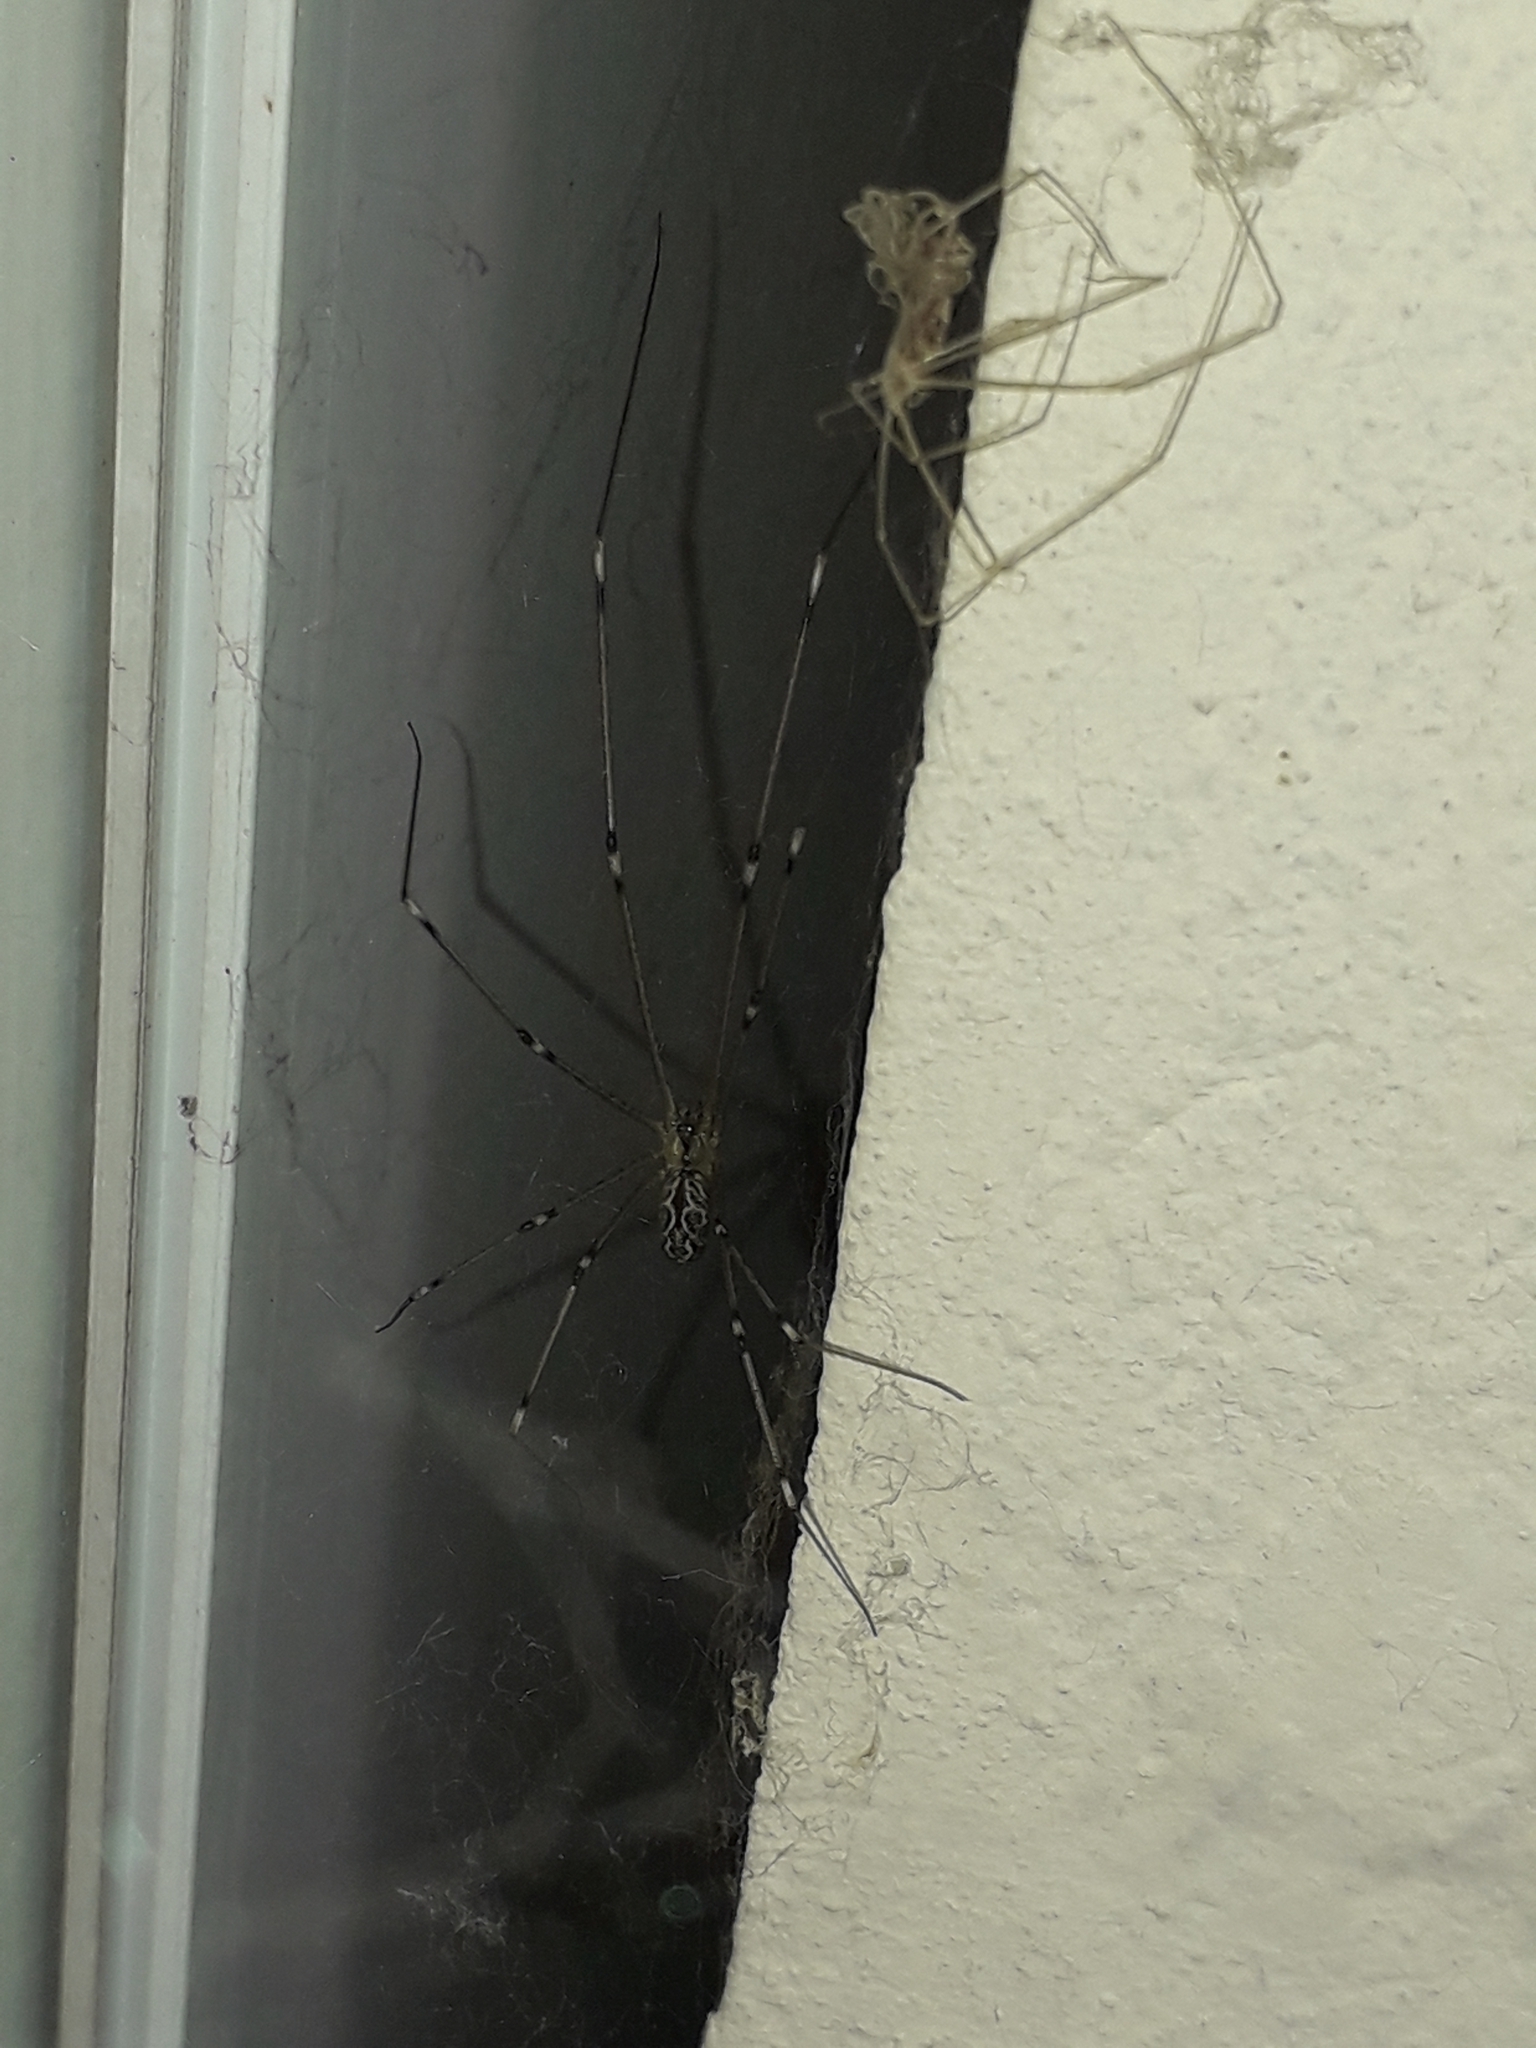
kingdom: Animalia
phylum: Arthropoda
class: Arachnida
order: Araneae
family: Pholcidae
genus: Holocnemus
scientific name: Holocnemus pluchei
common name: Marbled cellar spider
